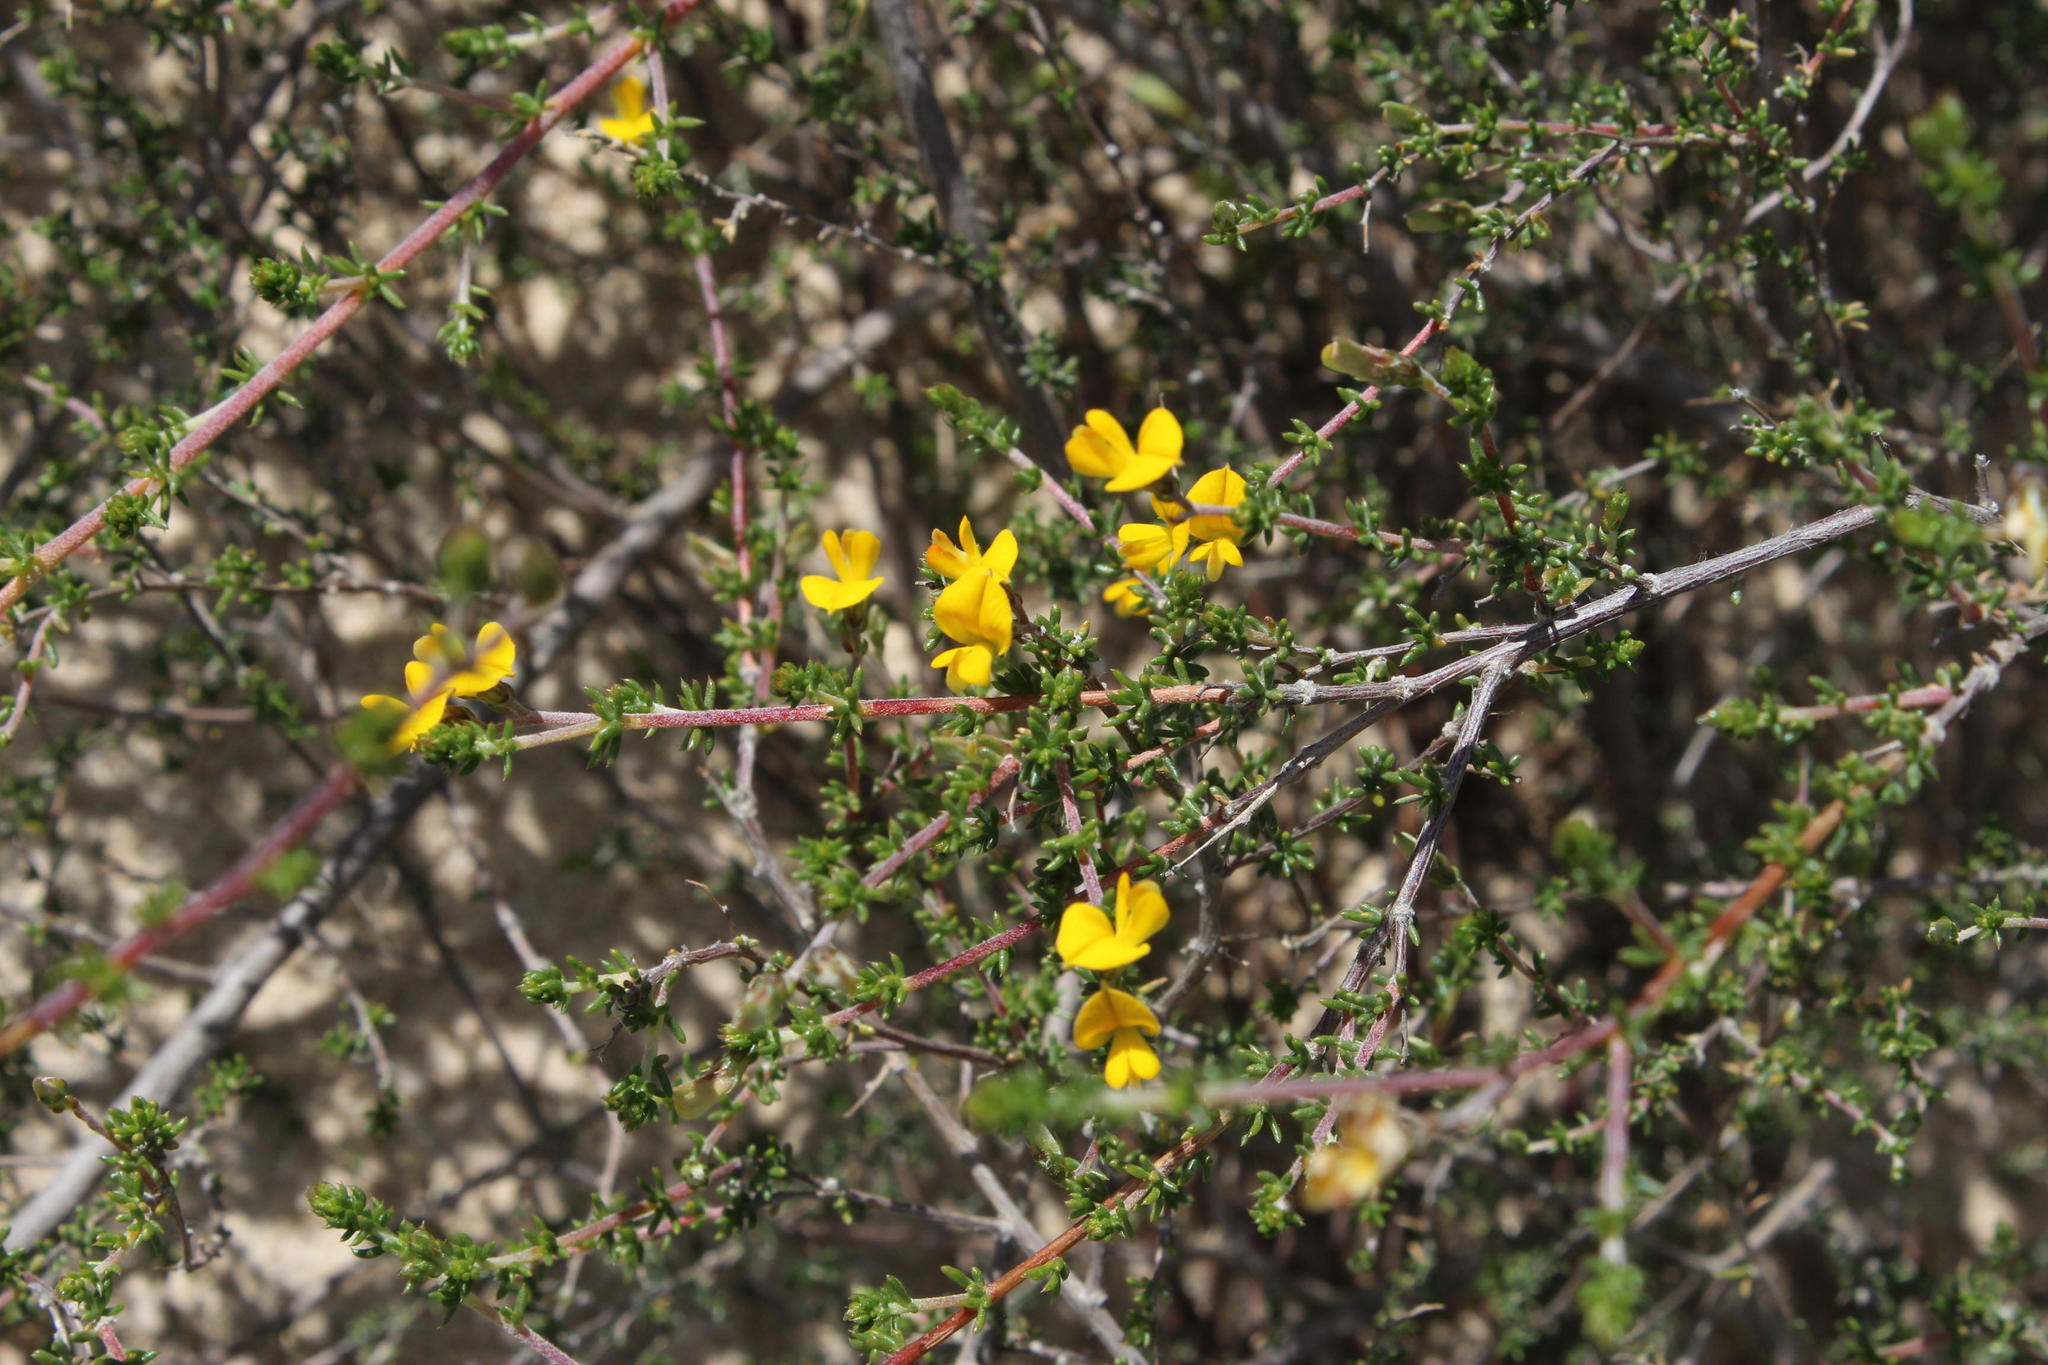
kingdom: Plantae
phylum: Tracheophyta
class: Magnoliopsida
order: Fabales
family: Fabaceae
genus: Aspalathus
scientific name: Aspalathus divaricata
